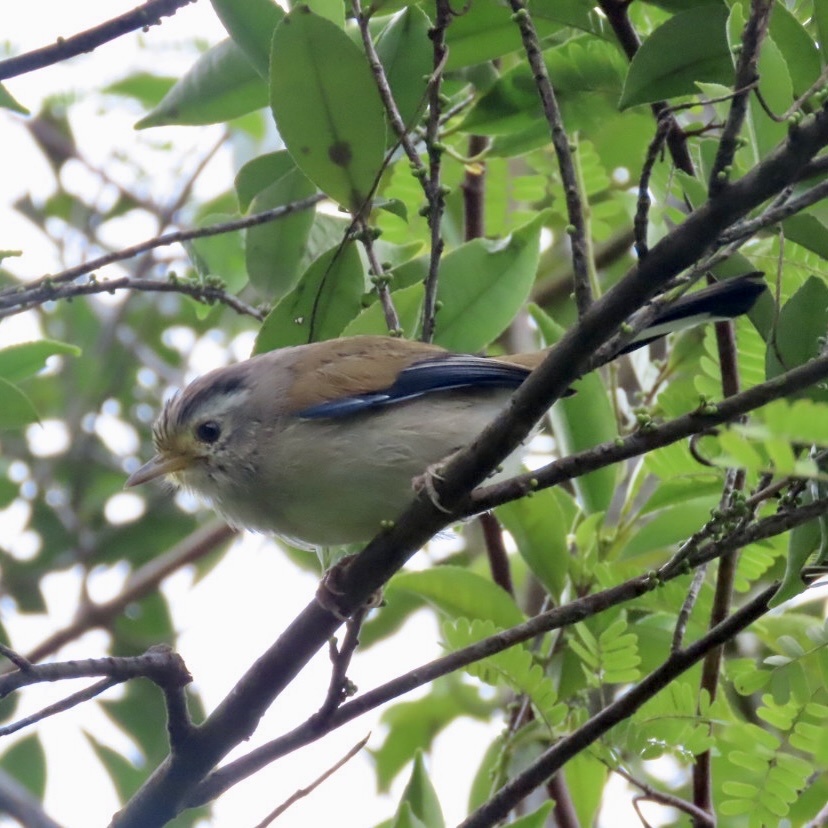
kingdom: Animalia
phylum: Chordata
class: Aves
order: Passeriformes
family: Leiothrichidae
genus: Minla
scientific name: Minla cyanouroptera
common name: Blue-winged minla
